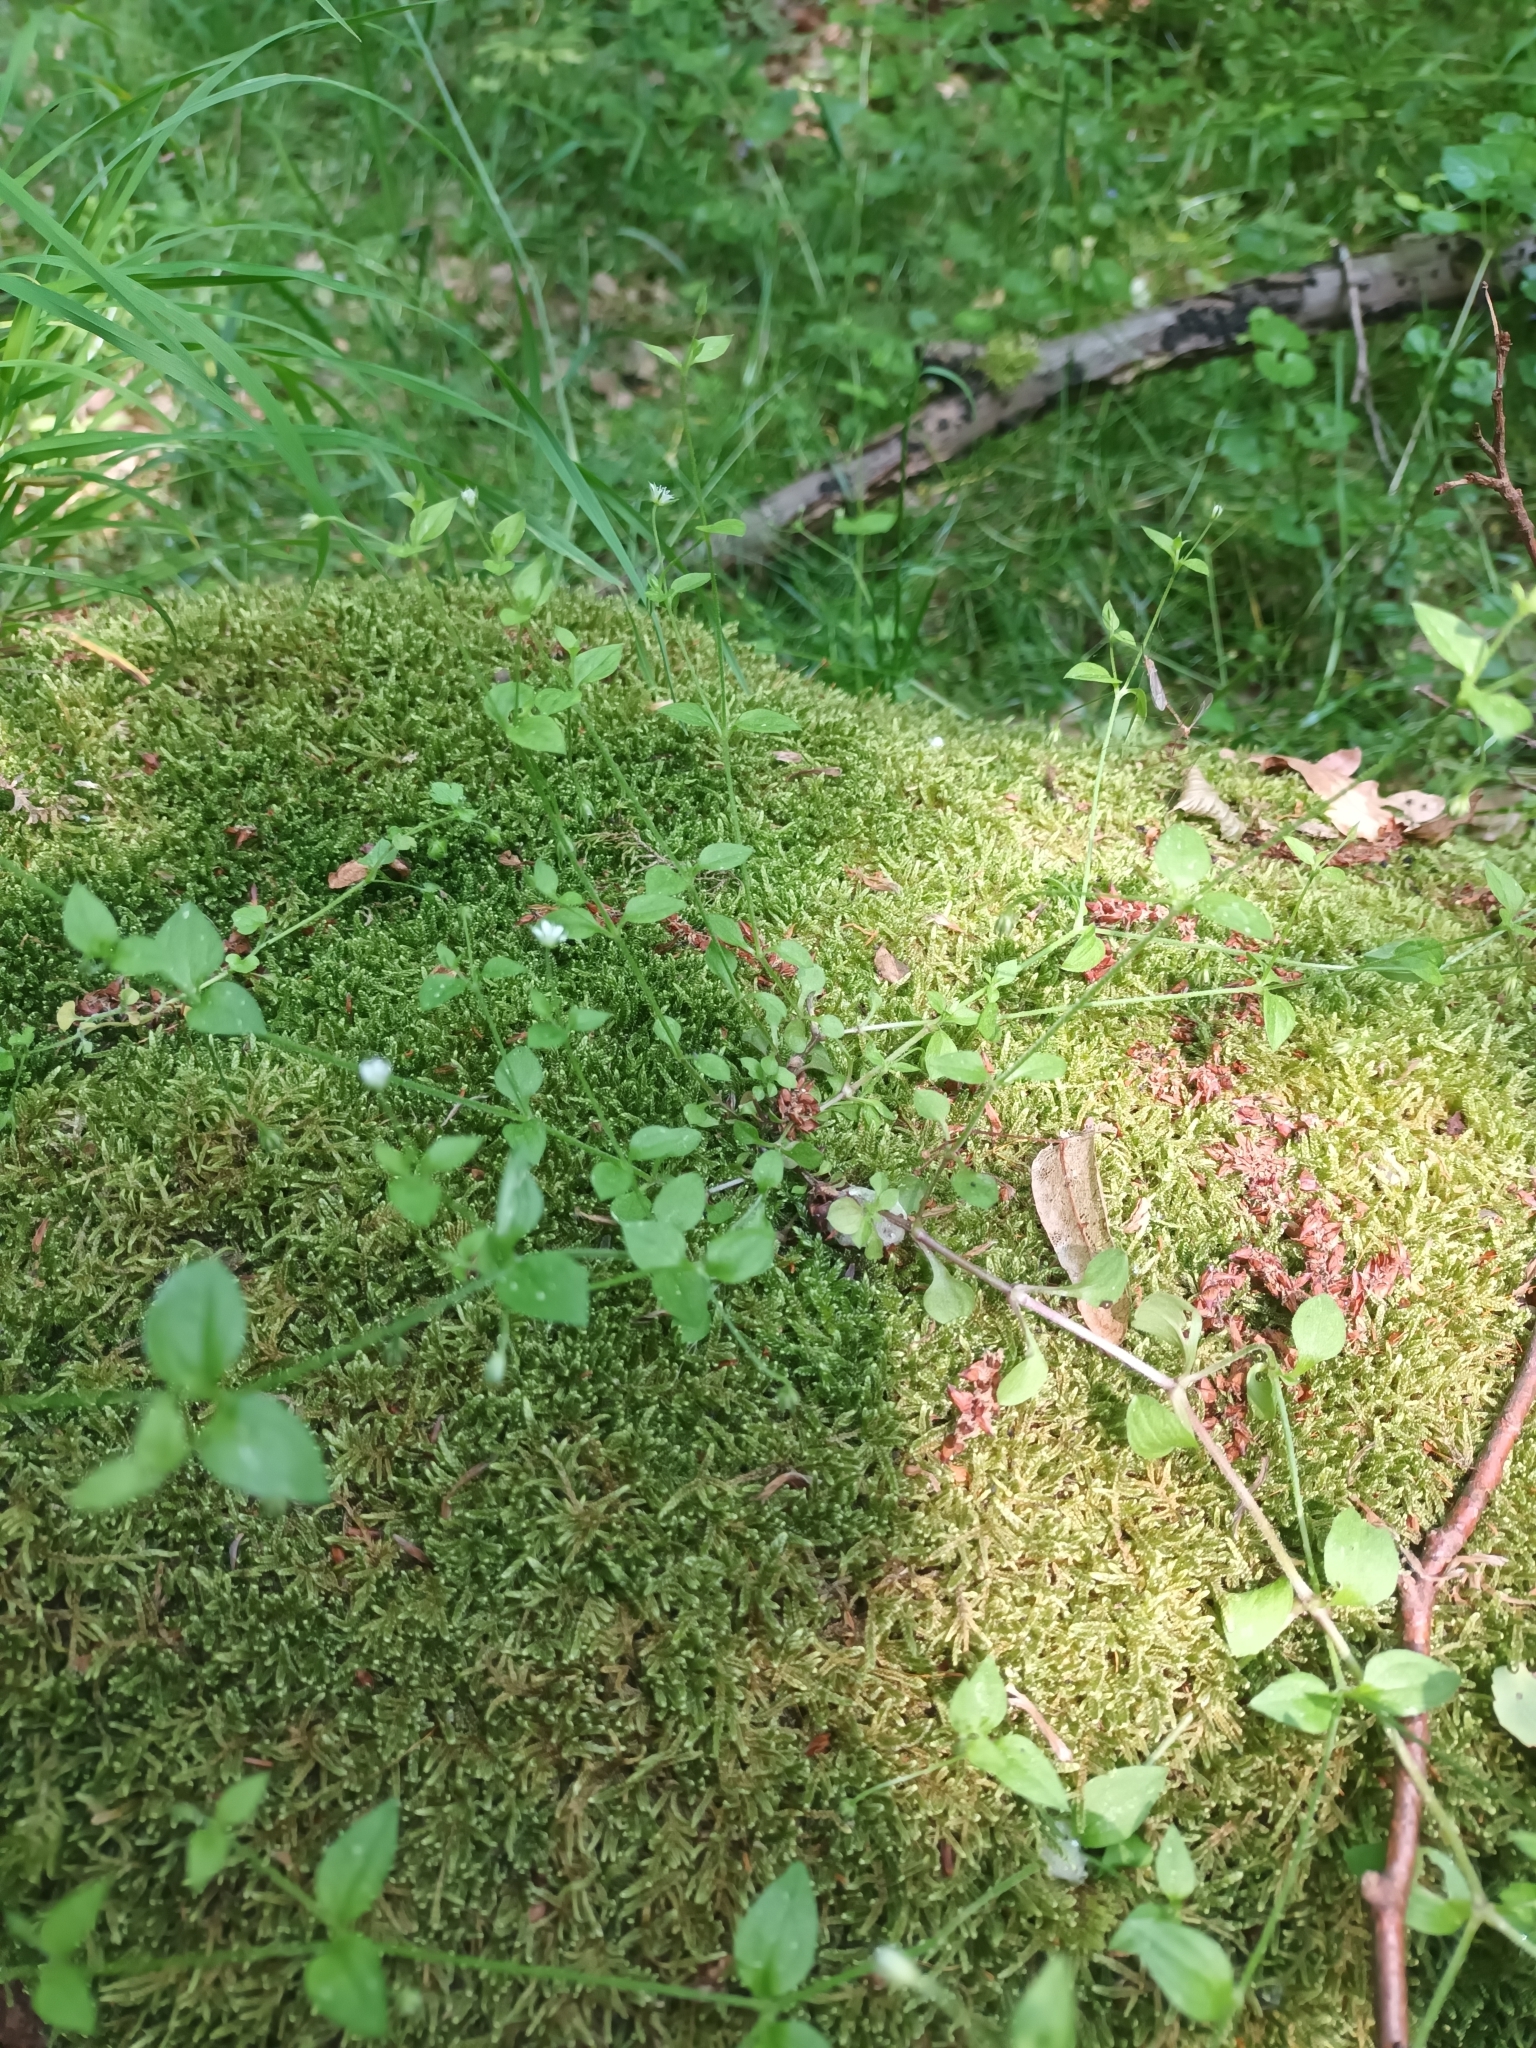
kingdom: Plantae
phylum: Tracheophyta
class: Magnoliopsida
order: Caryophyllales
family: Caryophyllaceae
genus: Moehringia
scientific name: Moehringia trinervia
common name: Three-nerved sandwort
